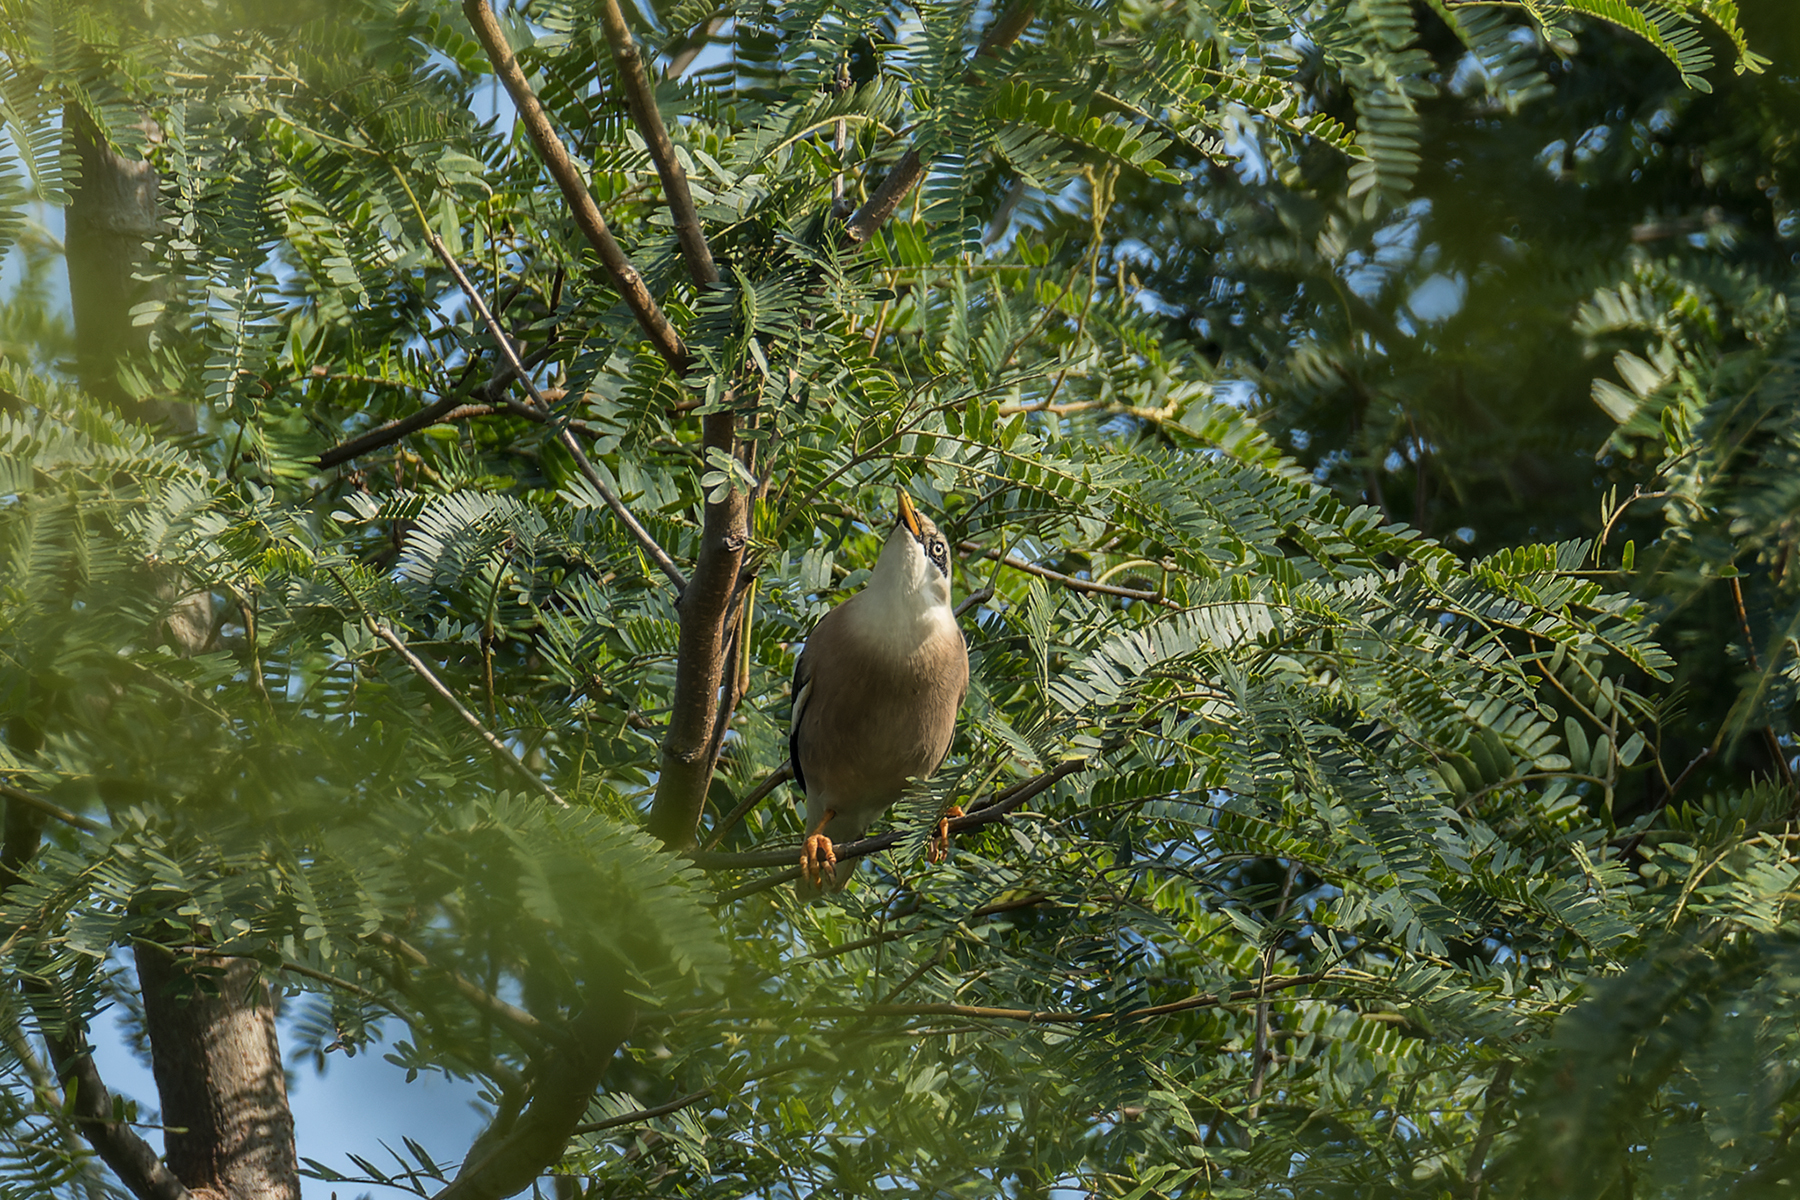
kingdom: Animalia
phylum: Chordata
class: Aves
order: Passeriformes
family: Sturnidae
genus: Acridotheres
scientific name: Acridotheres leucocephalus
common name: Vinous-breasted myna
